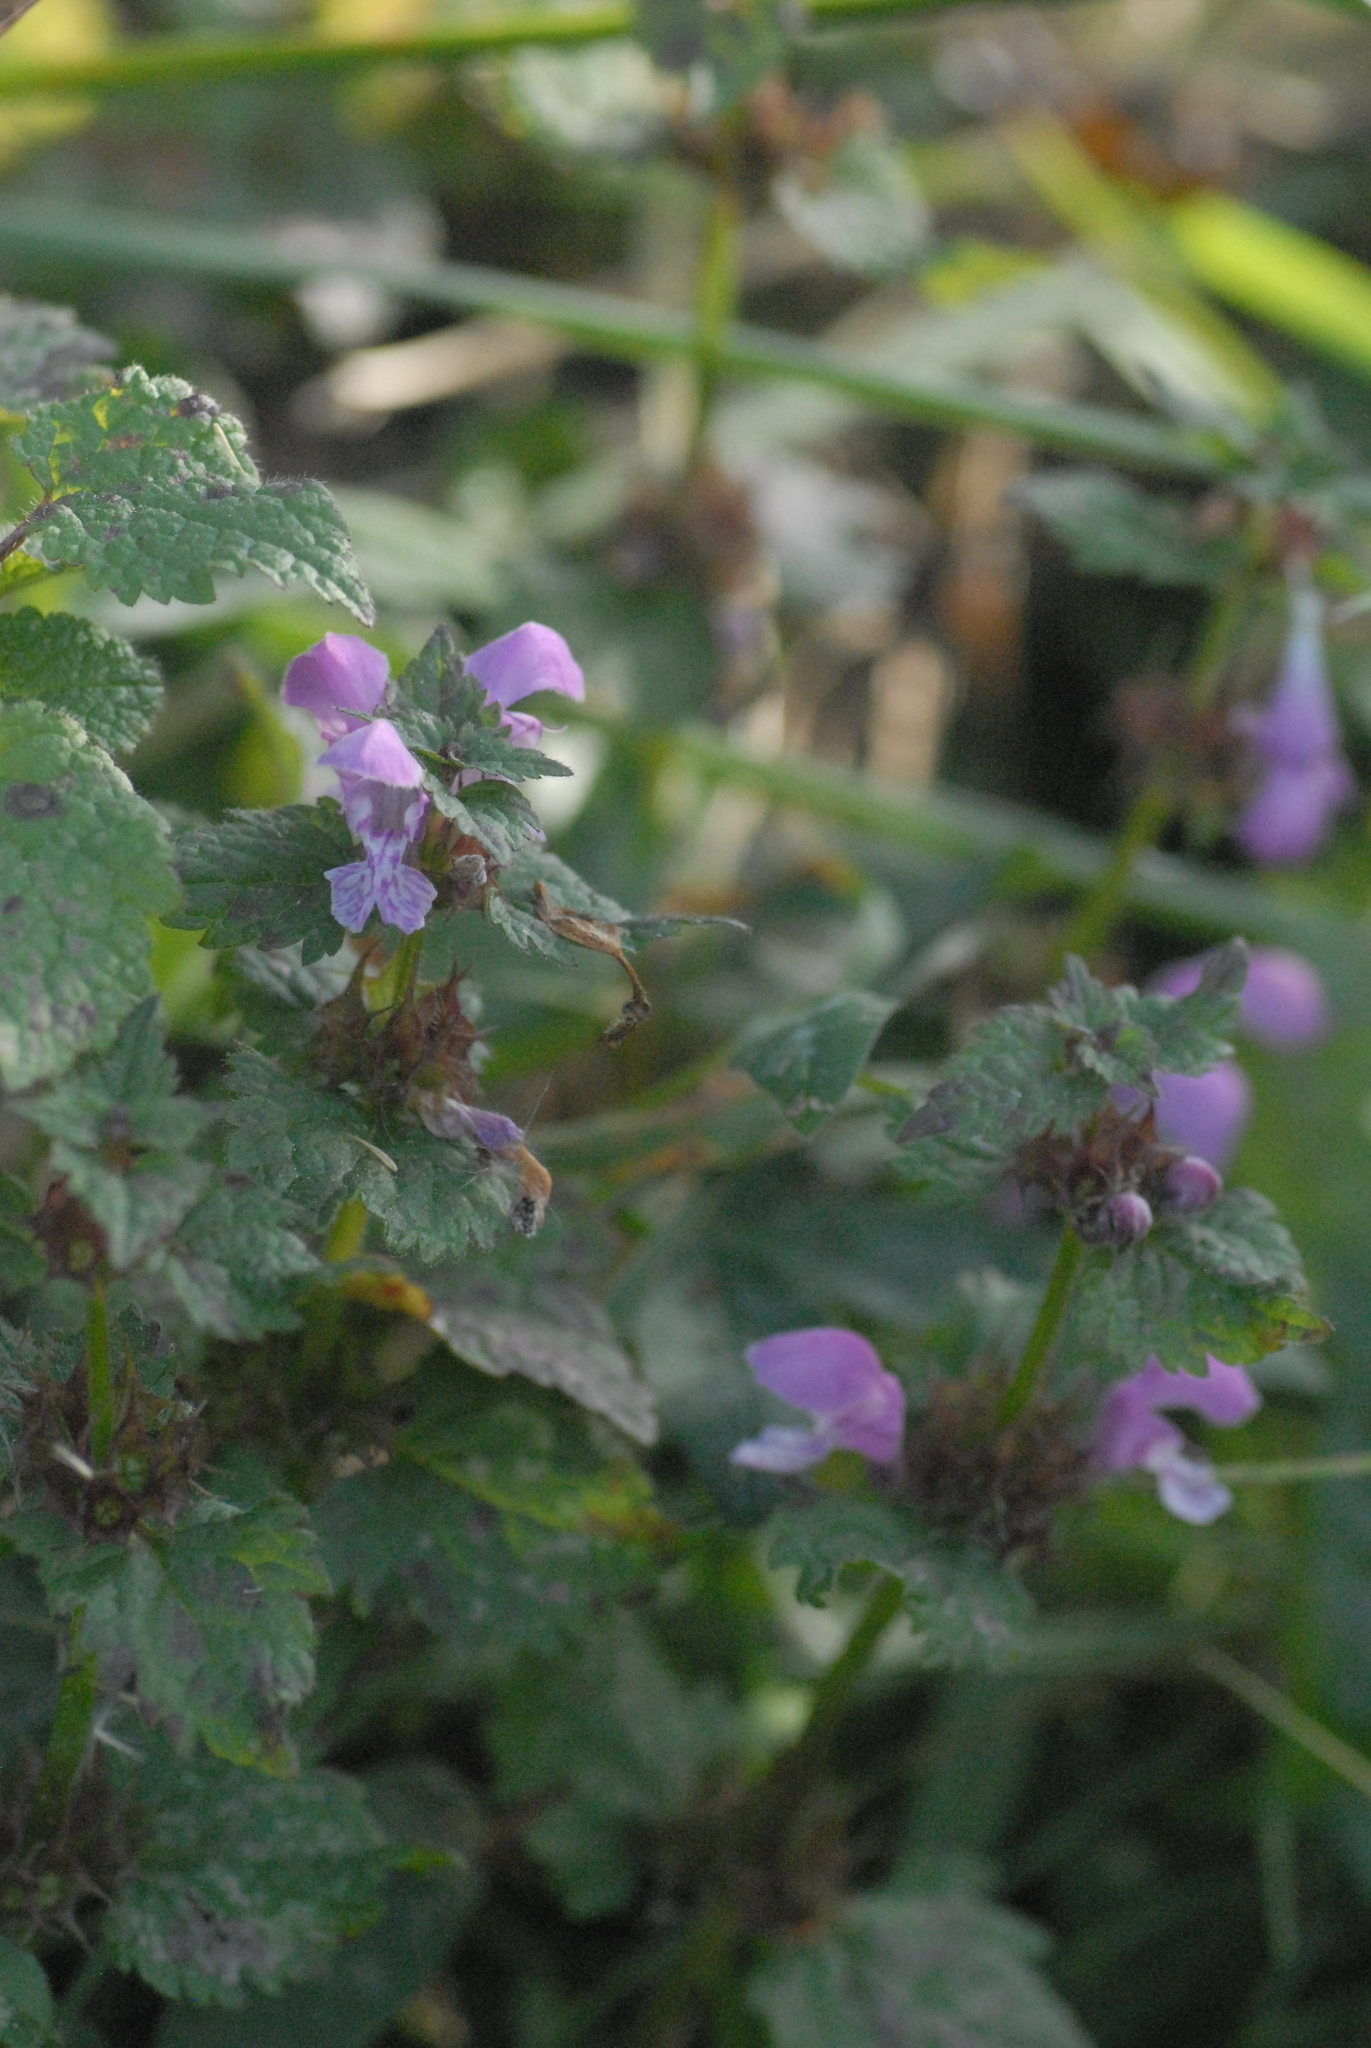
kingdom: Plantae
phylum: Tracheophyta
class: Magnoliopsida
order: Lamiales
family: Lamiaceae
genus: Lamium
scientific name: Lamium maculatum
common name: Spotted dead-nettle
